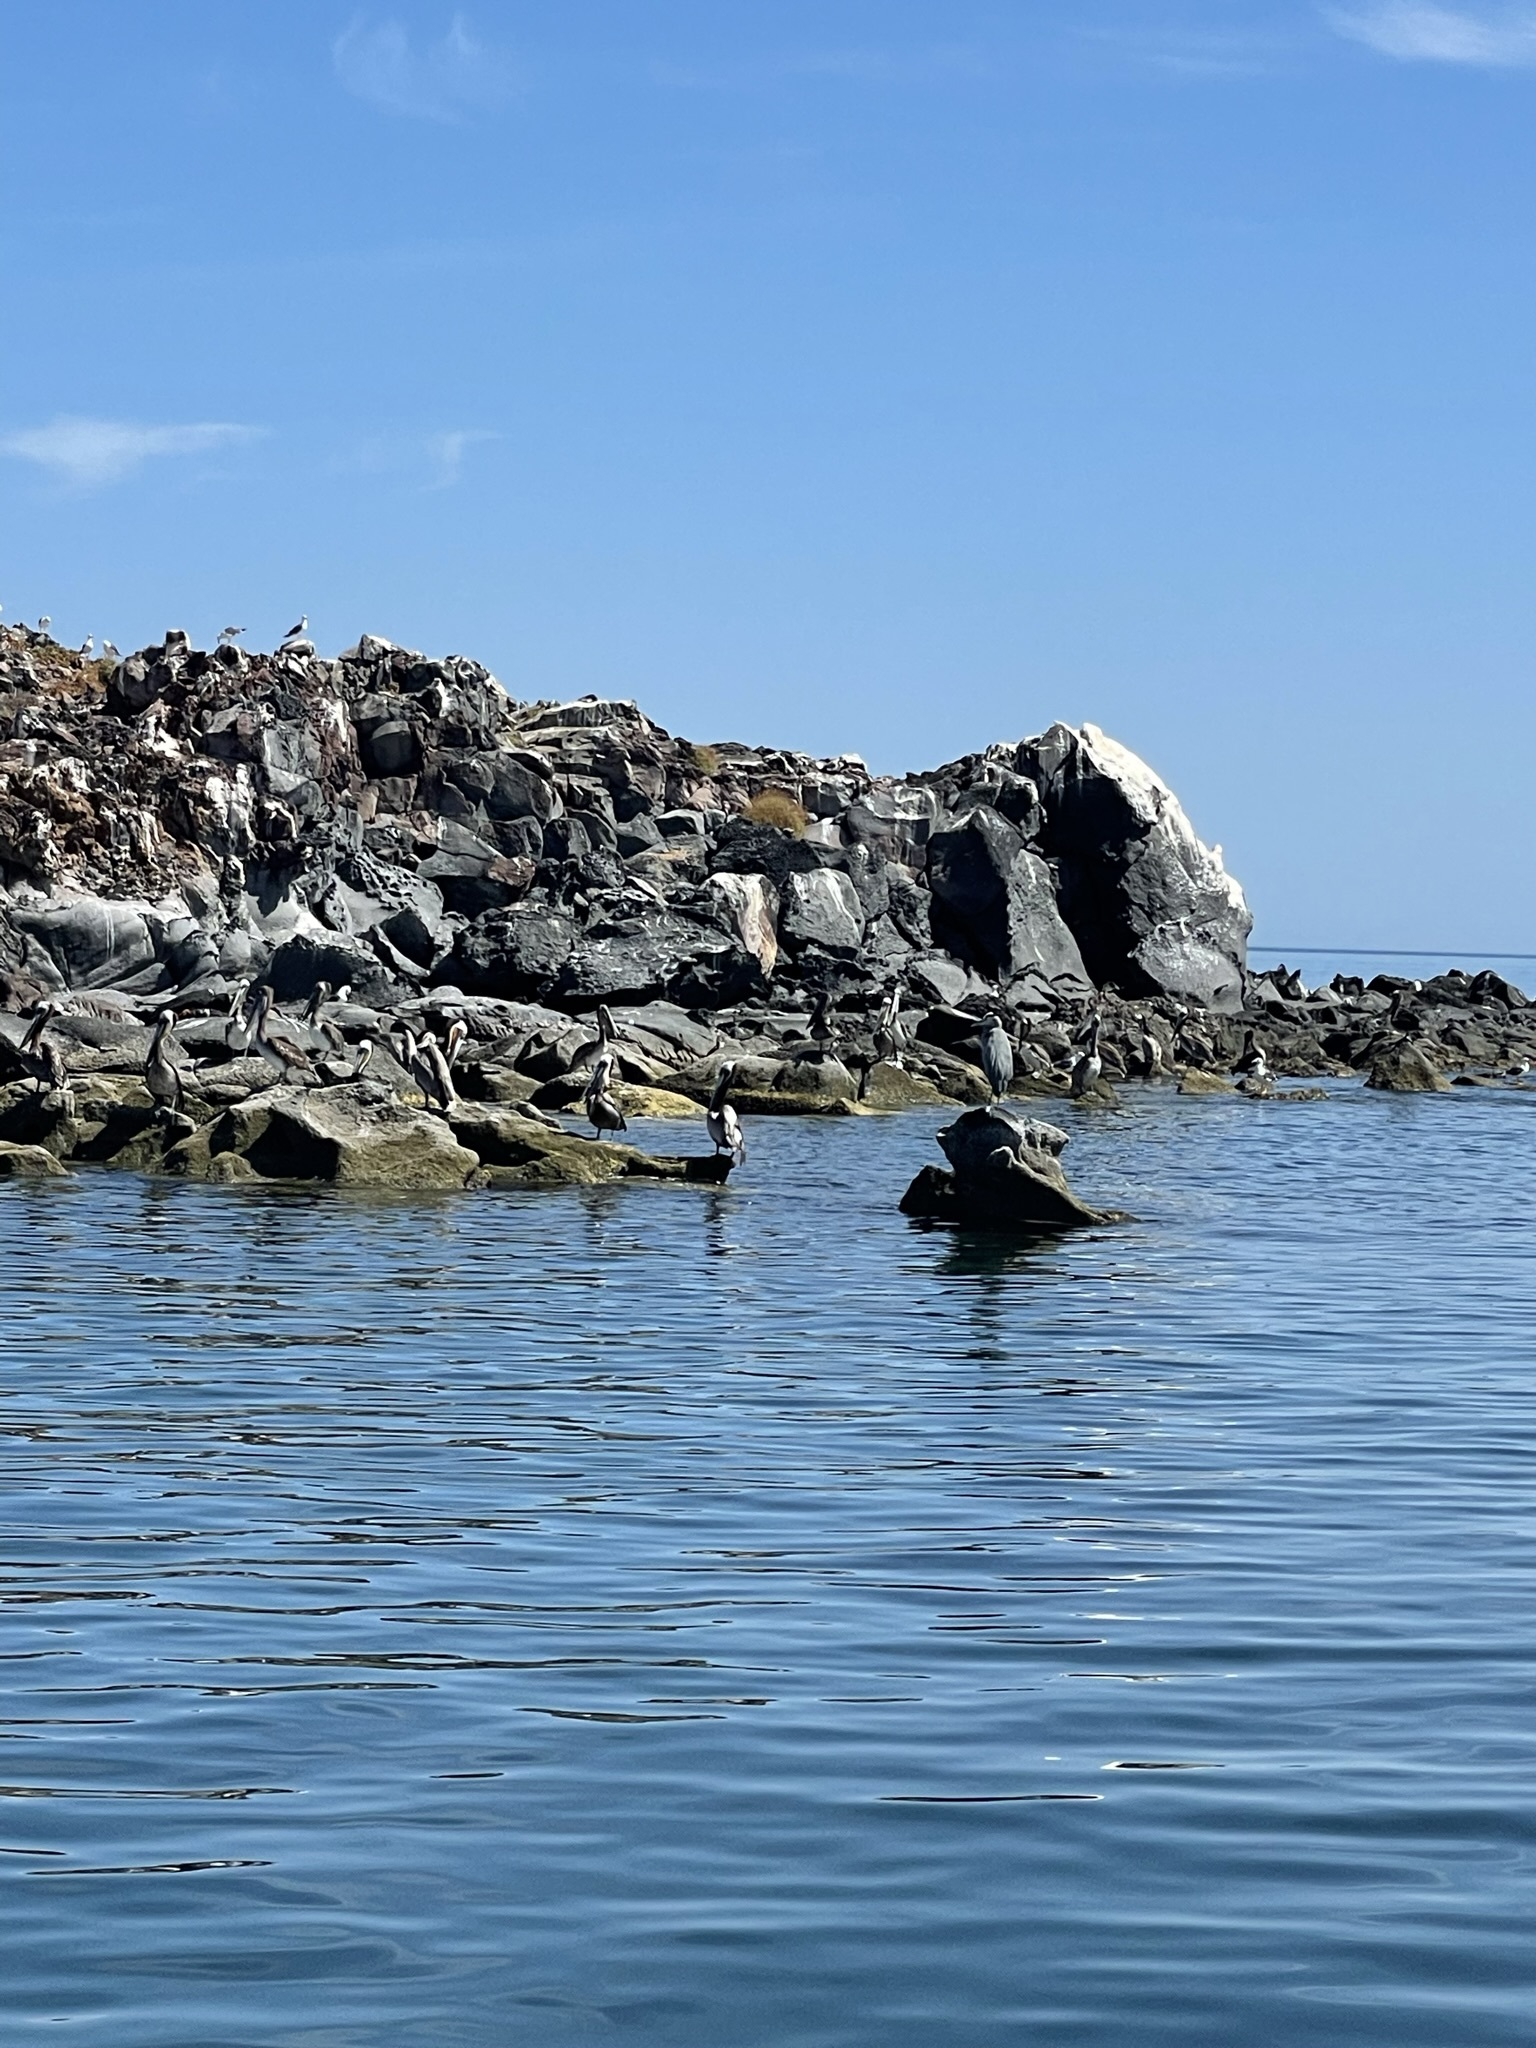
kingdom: Animalia
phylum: Chordata
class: Aves
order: Pelecaniformes
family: Pelecanidae
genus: Pelecanus
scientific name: Pelecanus occidentalis
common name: Brown pelican
